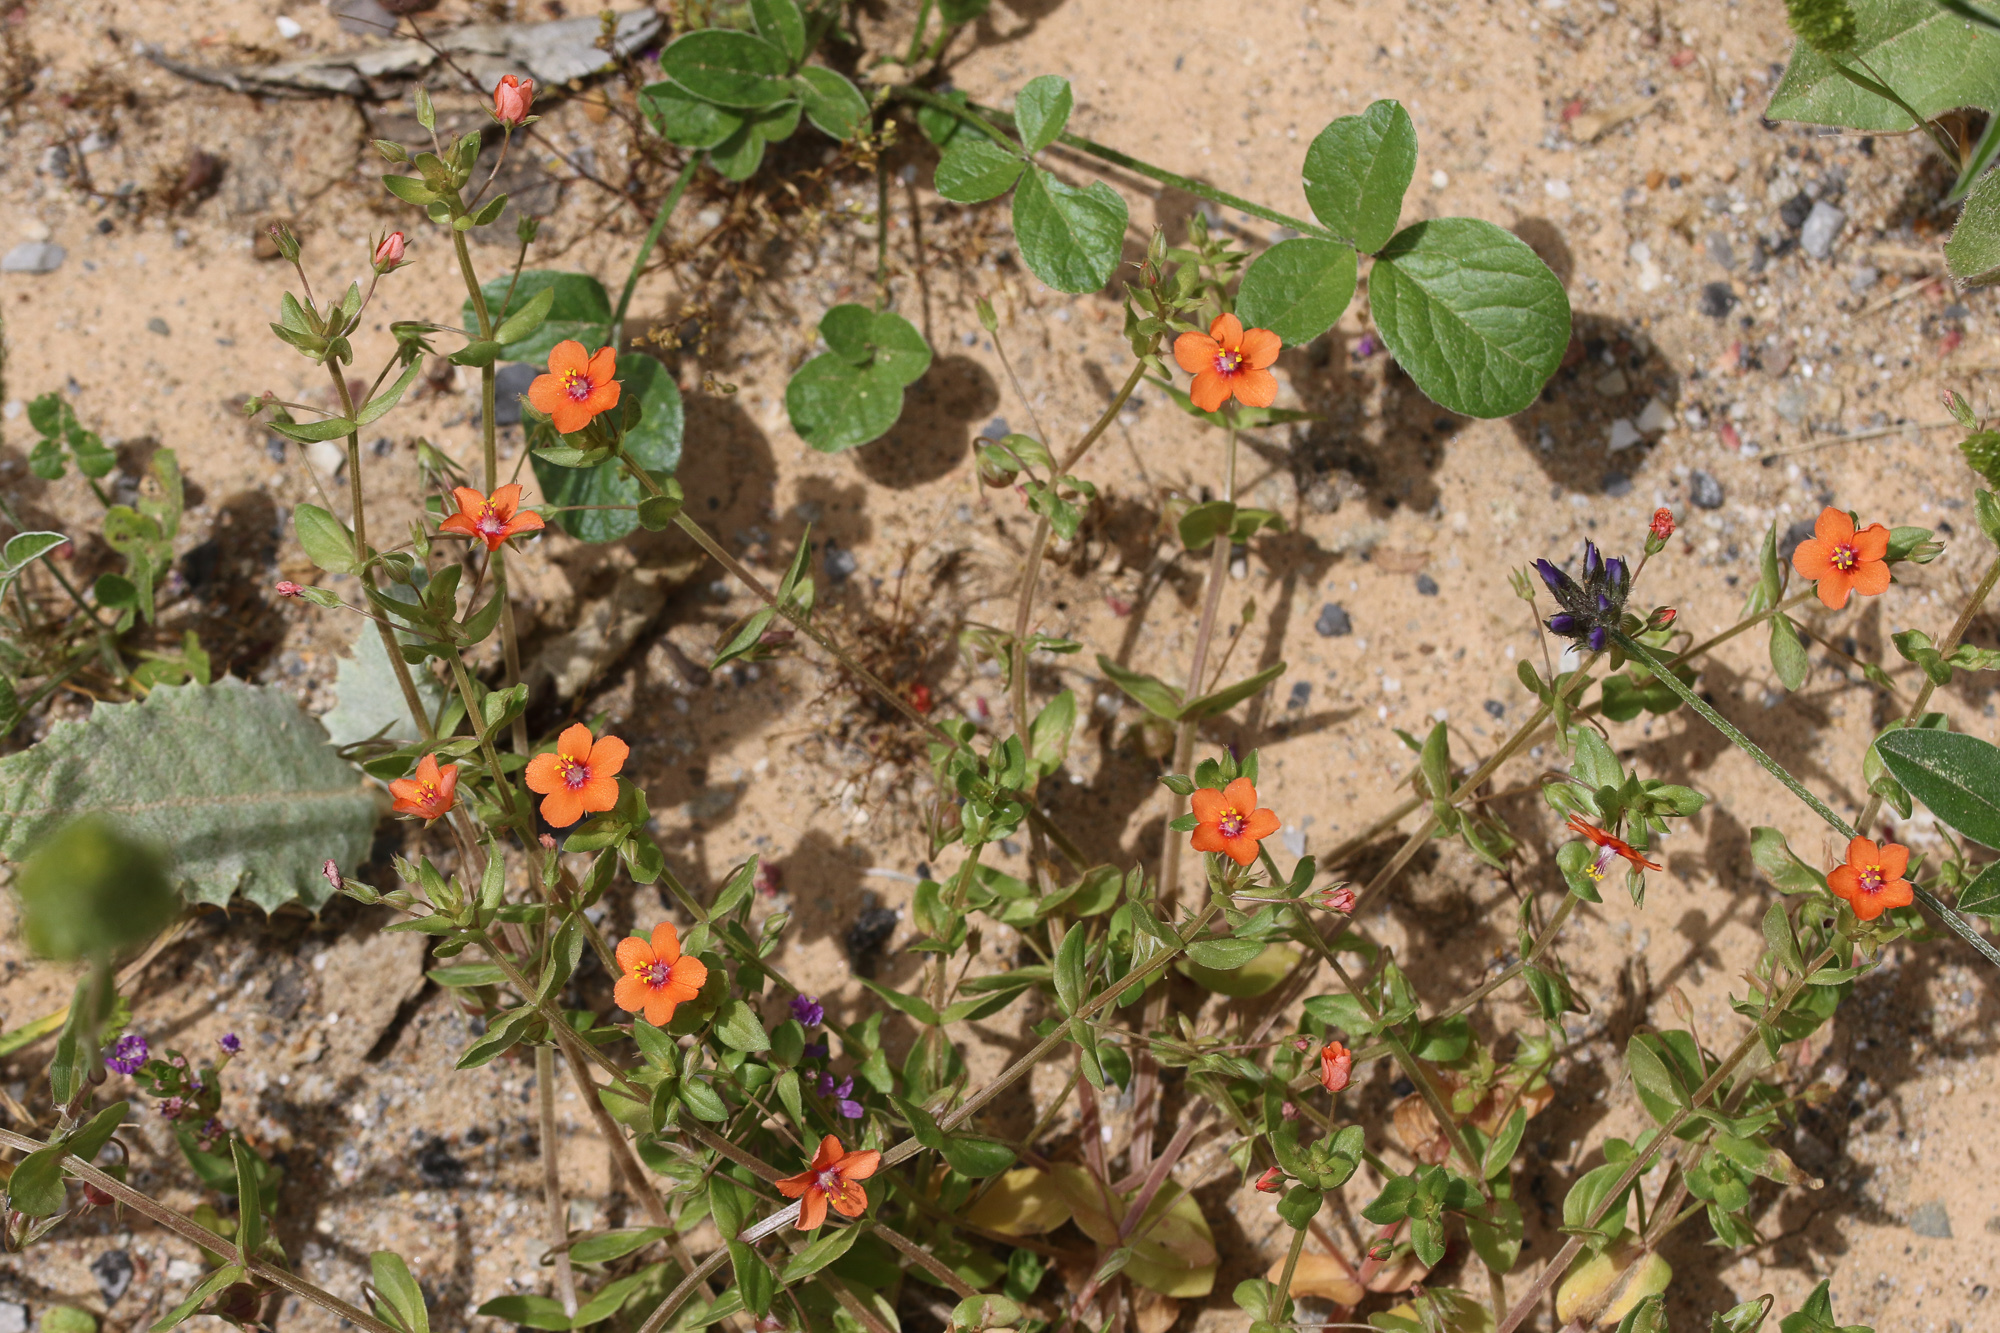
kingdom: Plantae
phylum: Tracheophyta
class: Magnoliopsida
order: Ericales
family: Primulaceae
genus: Lysimachia
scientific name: Lysimachia arvensis
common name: Scarlet pimpernel
